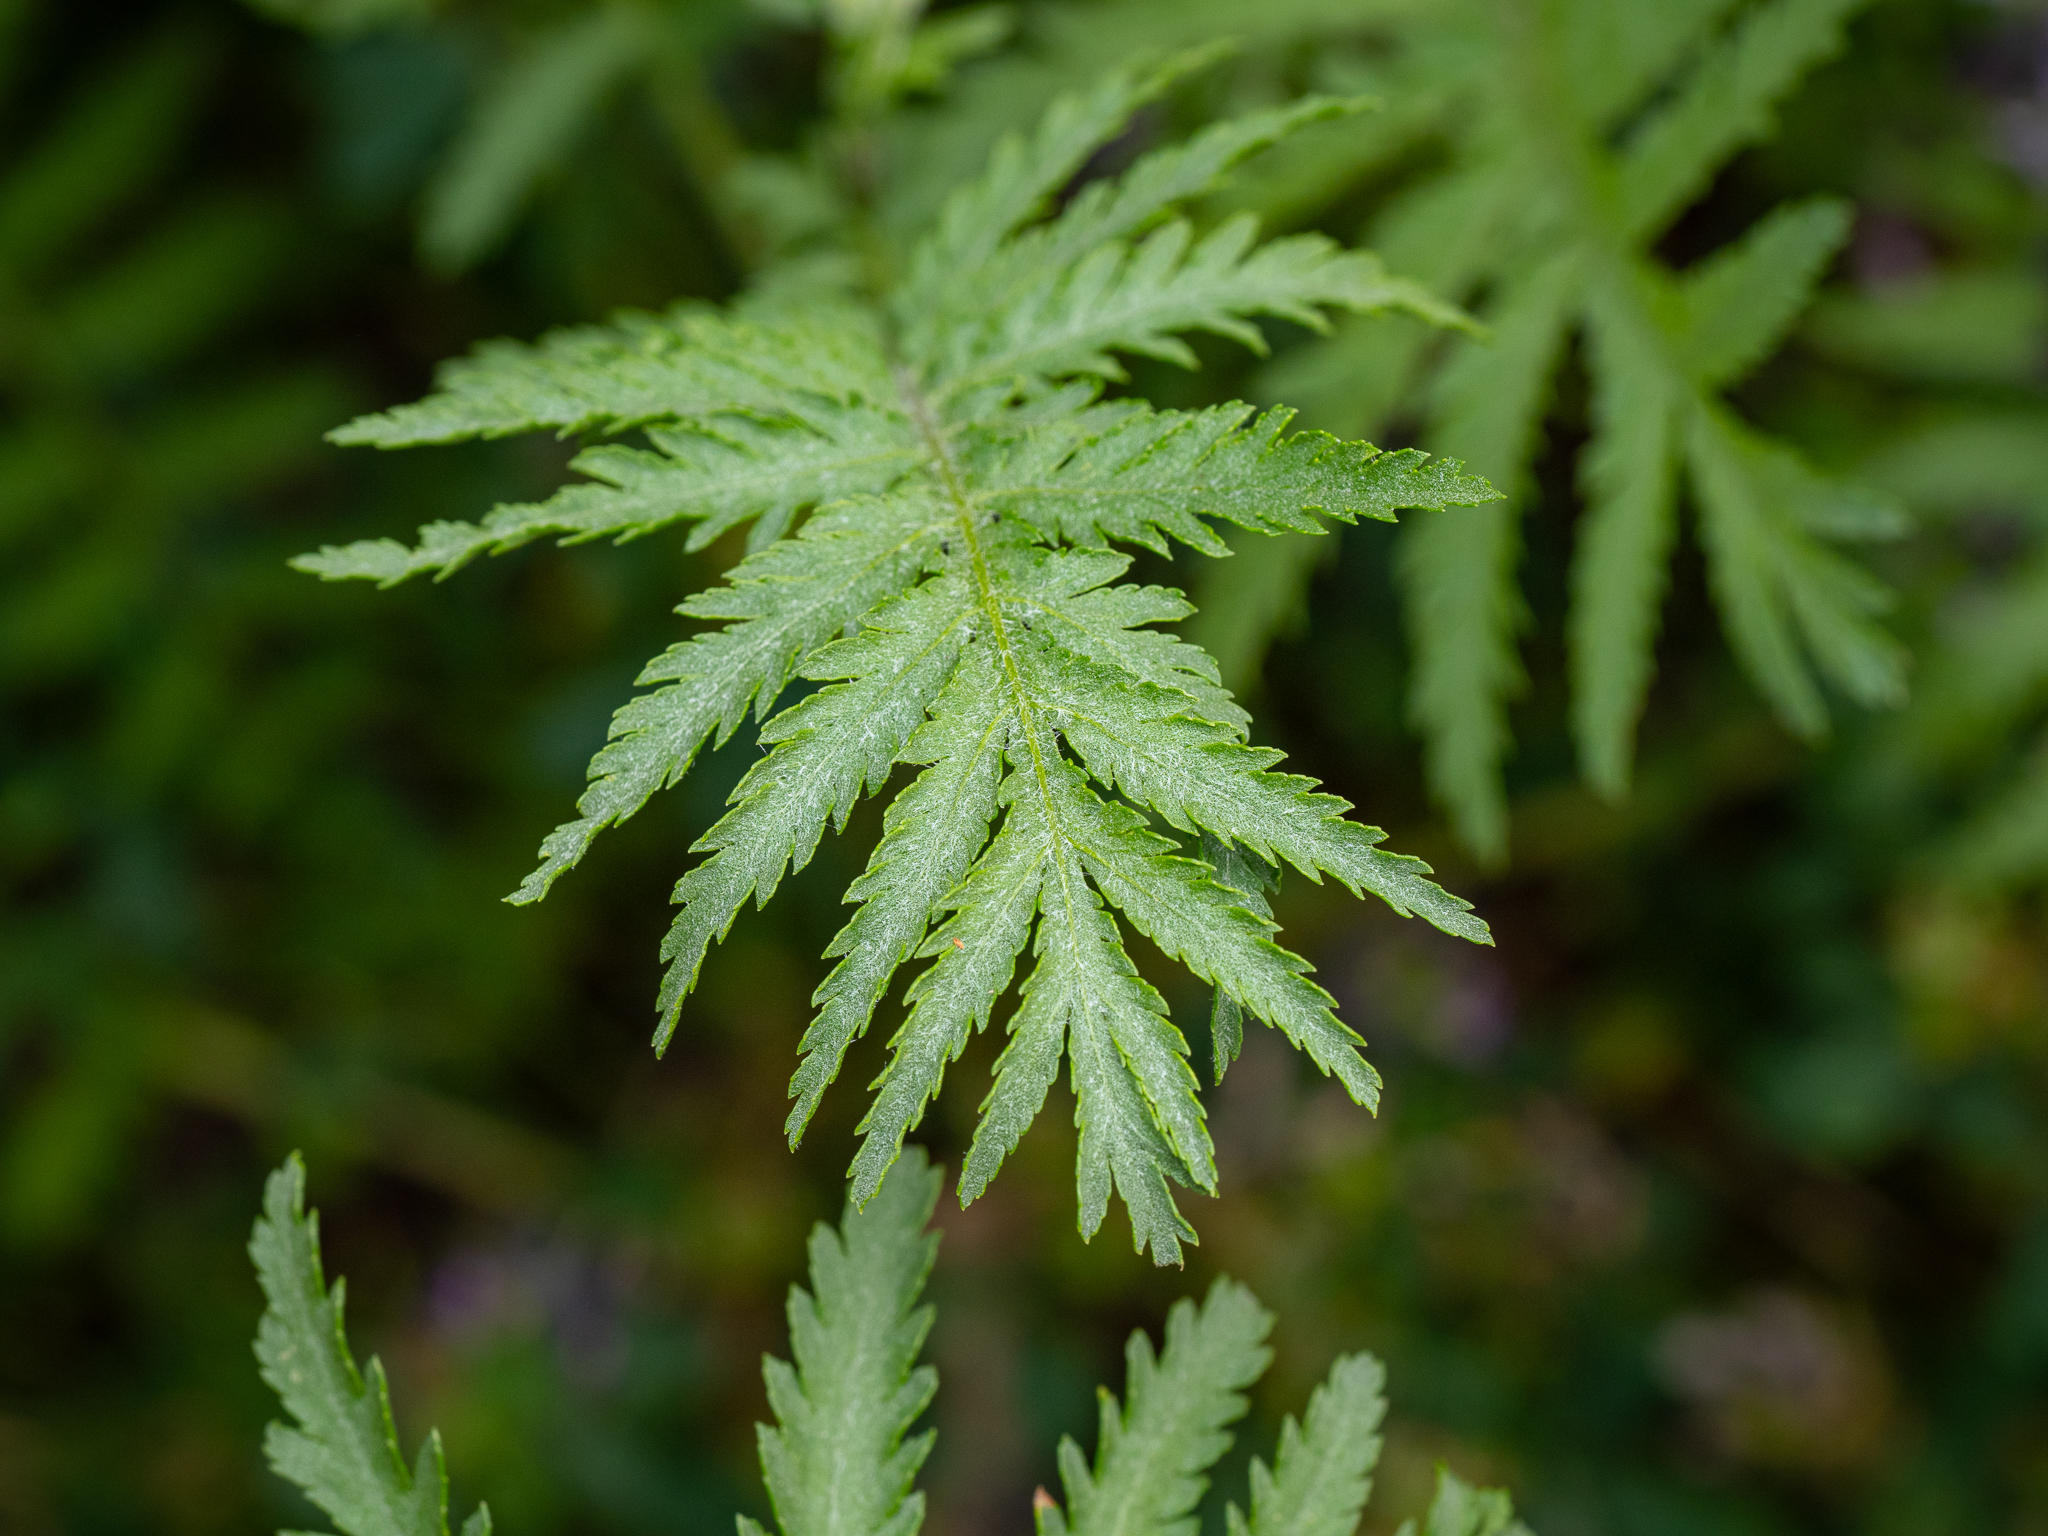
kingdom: Plantae
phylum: Tracheophyta
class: Magnoliopsida
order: Asterales
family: Asteraceae
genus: Tanacetum
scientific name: Tanacetum vulgare
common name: Common tansy
